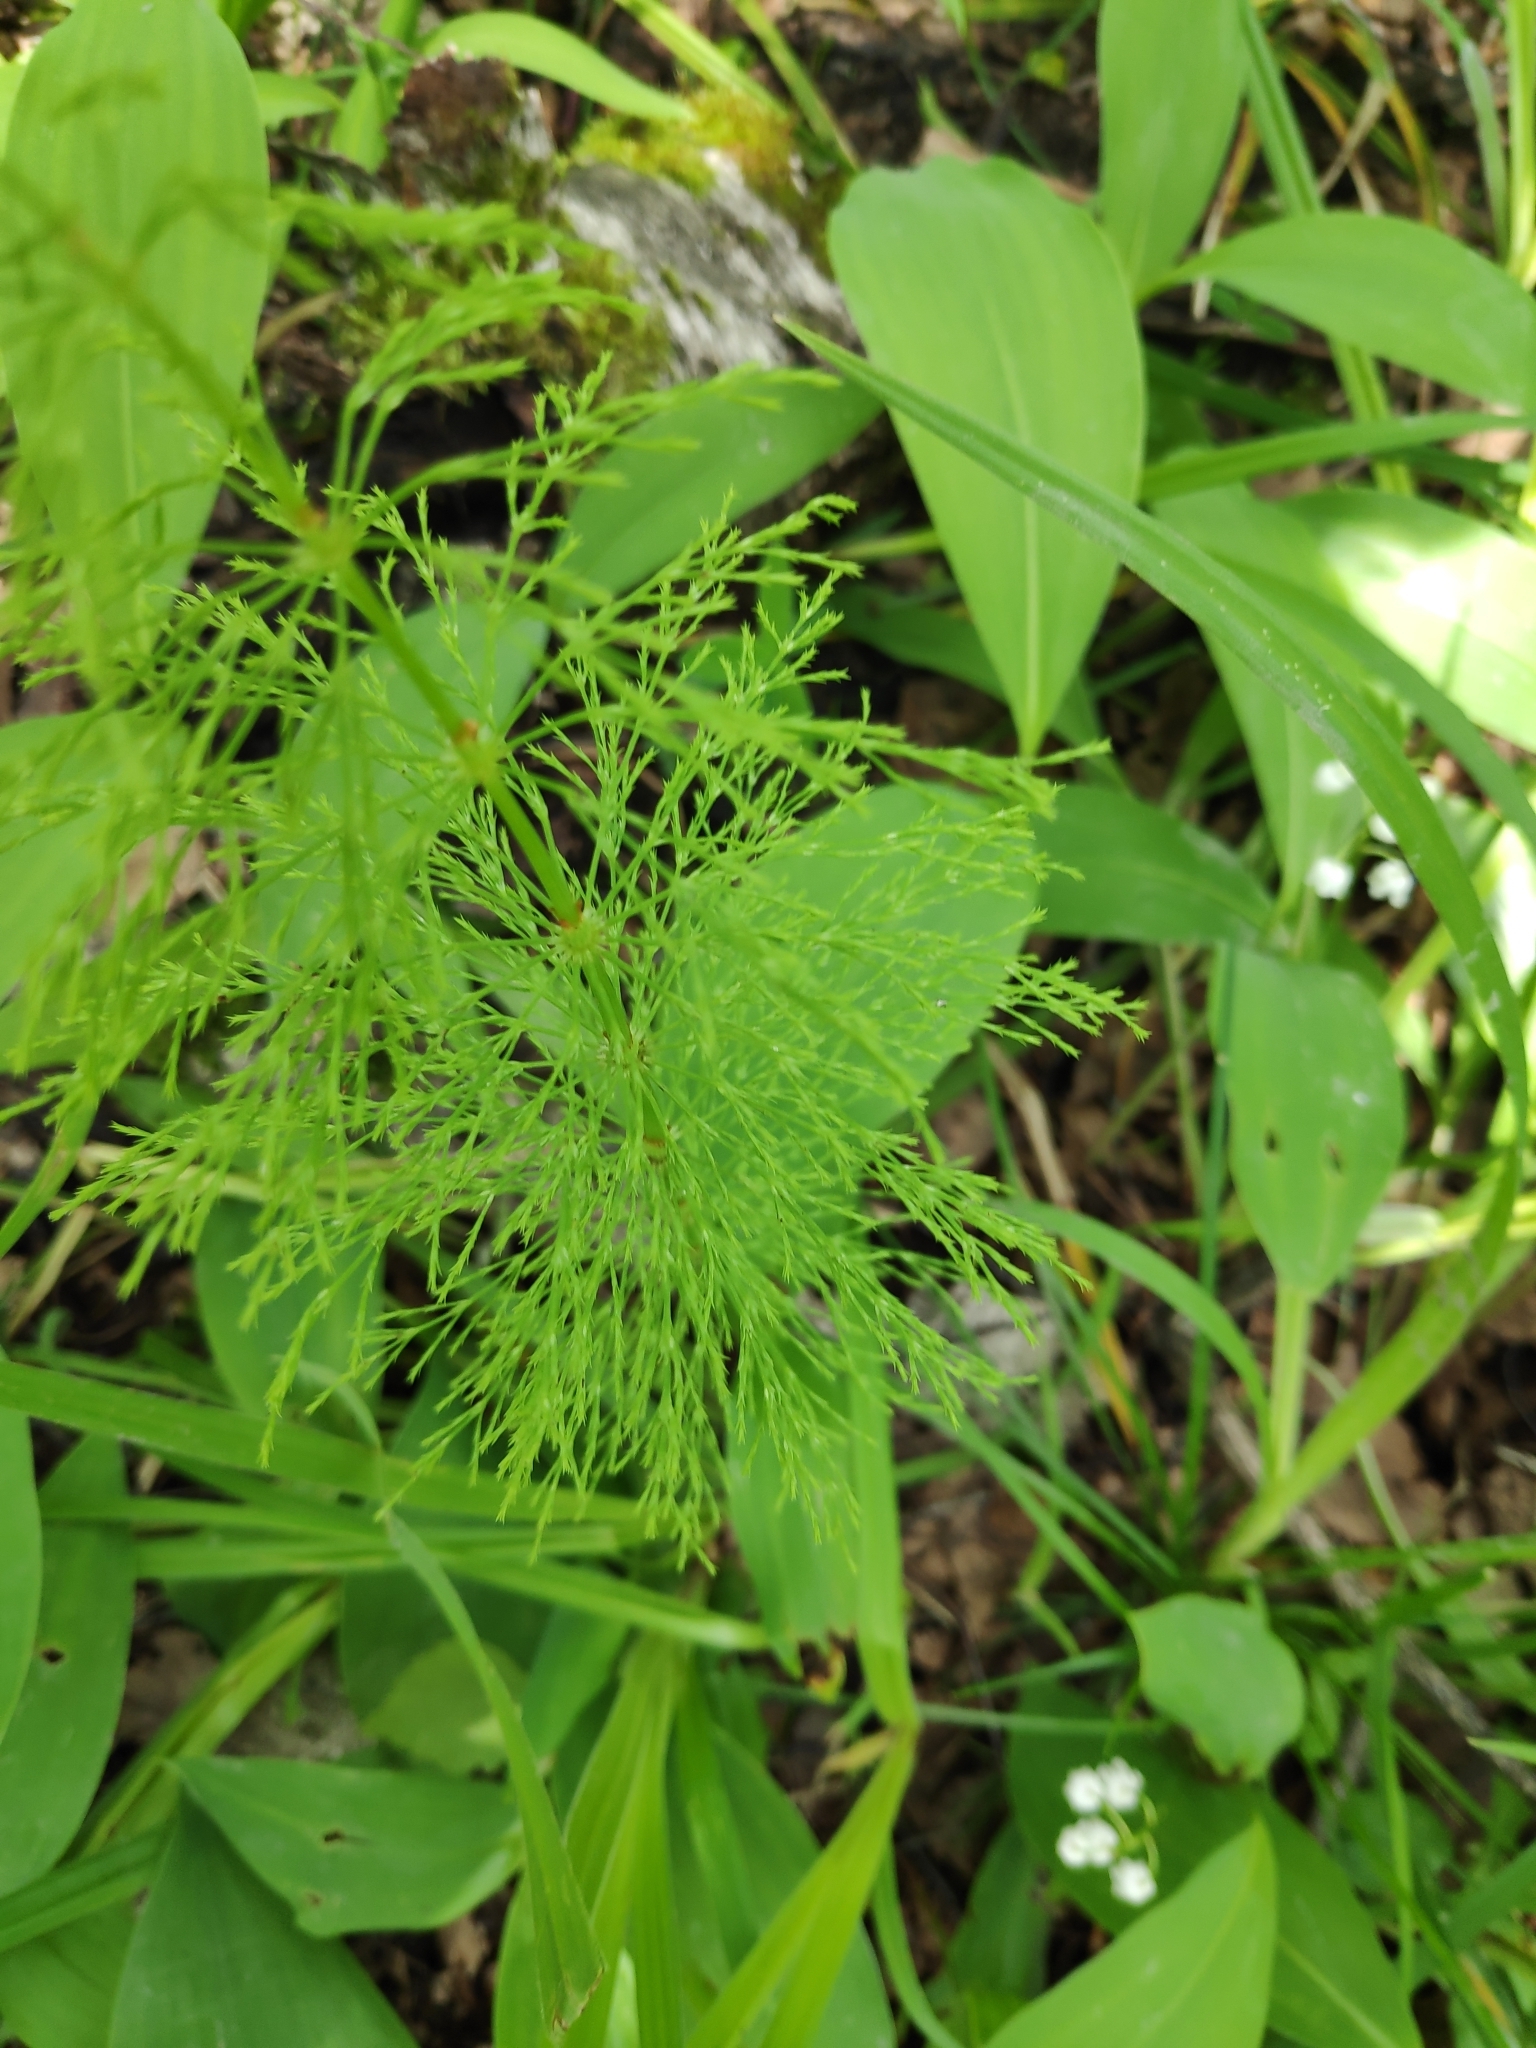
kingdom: Plantae
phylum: Tracheophyta
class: Polypodiopsida
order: Equisetales
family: Equisetaceae
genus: Equisetum
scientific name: Equisetum sylvaticum
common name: Wood horsetail
